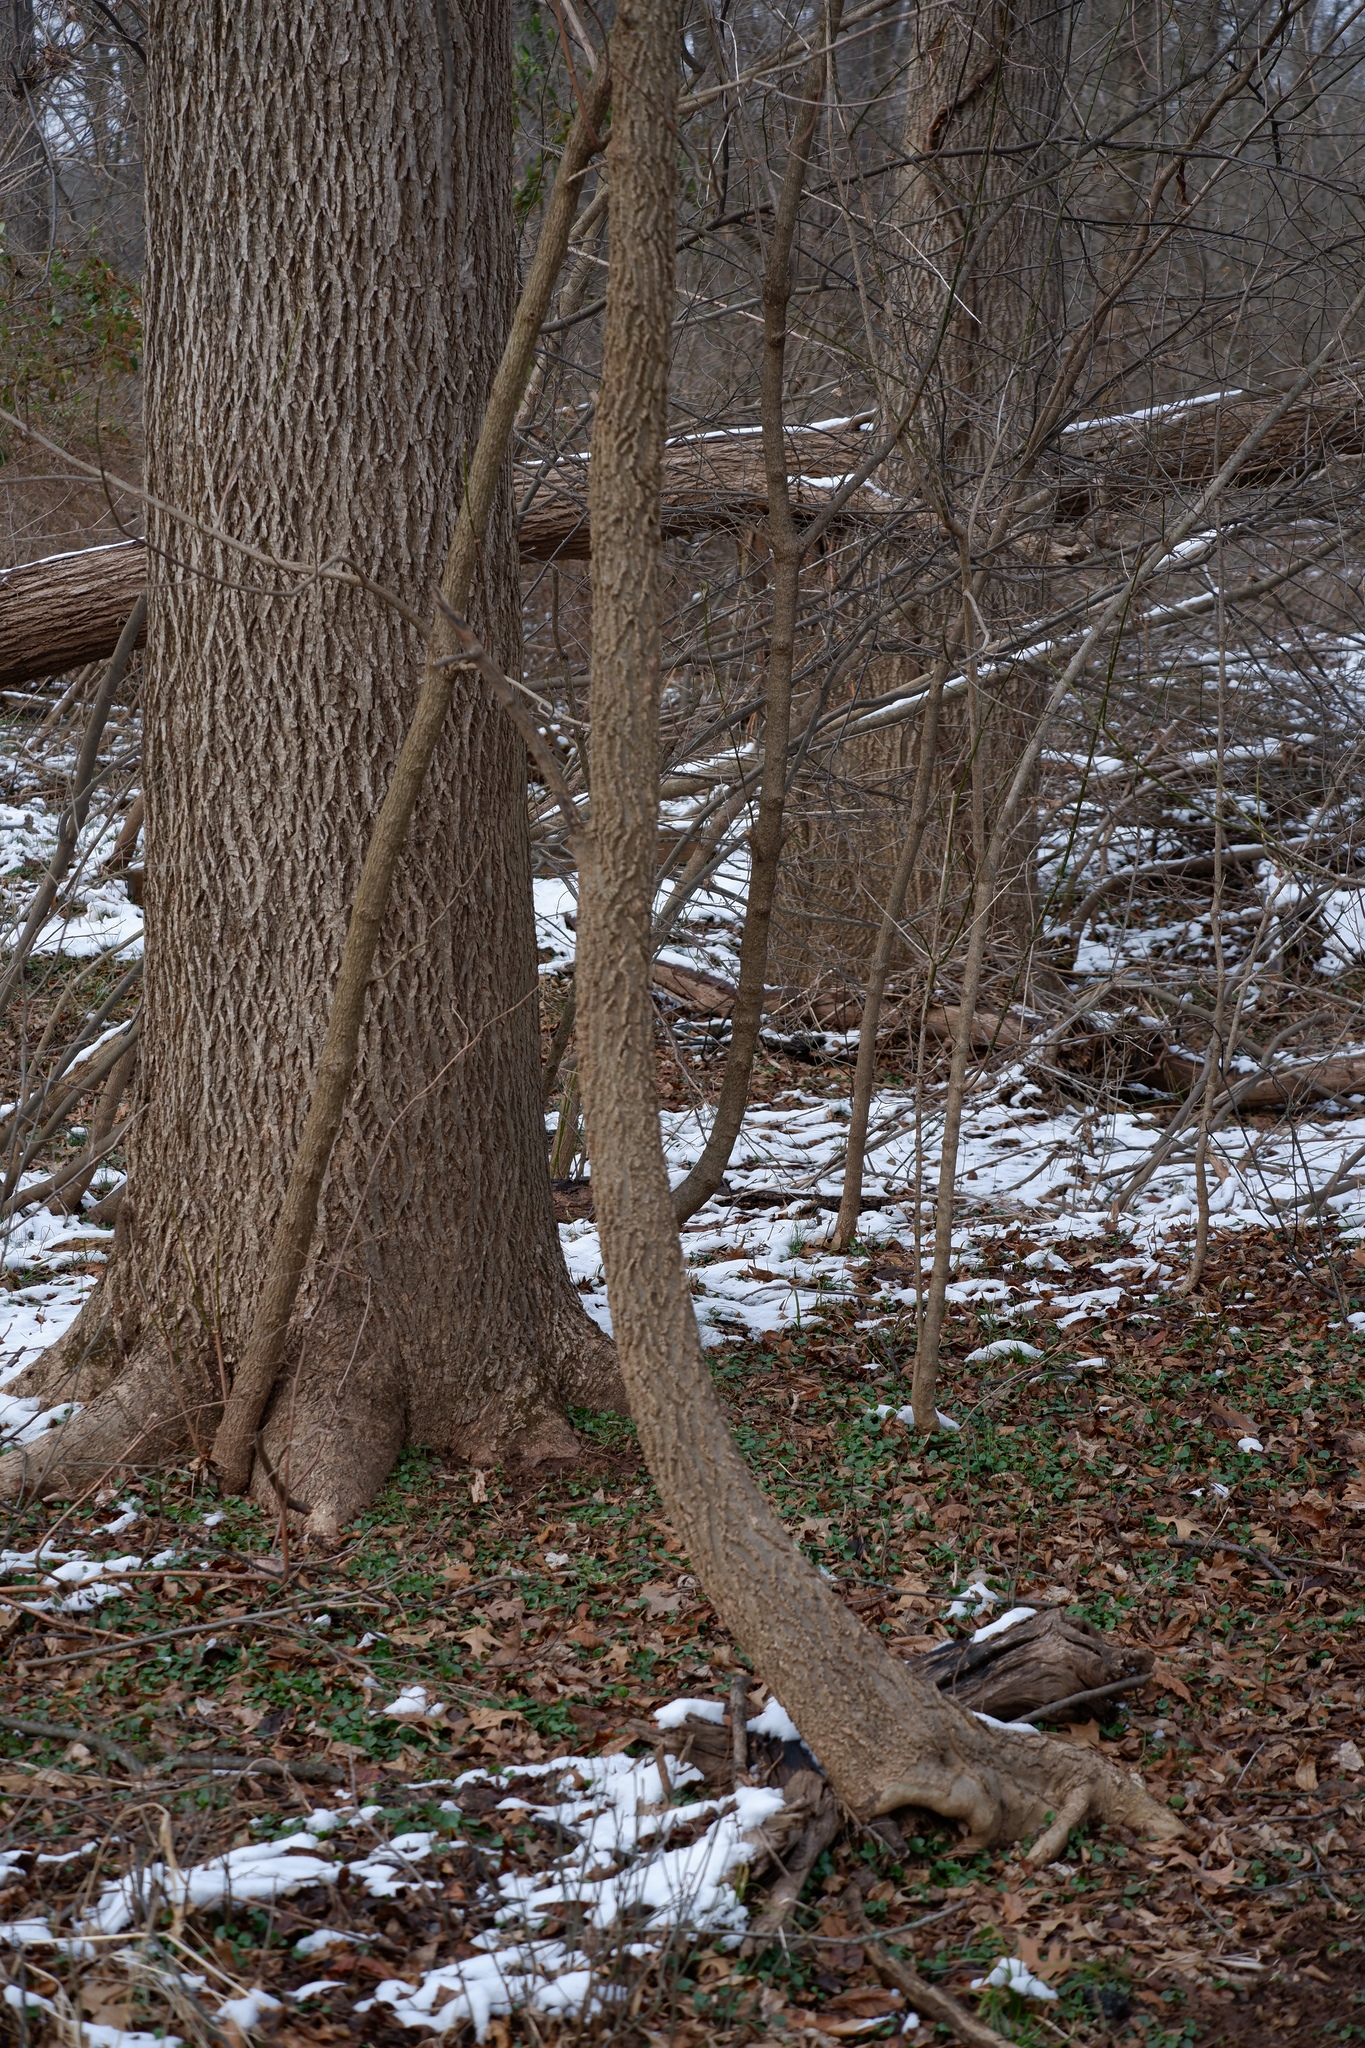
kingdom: Plantae
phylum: Tracheophyta
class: Magnoliopsida
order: Rosales
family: Cannabaceae
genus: Celtis
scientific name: Celtis occidentalis
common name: Common hackberry
